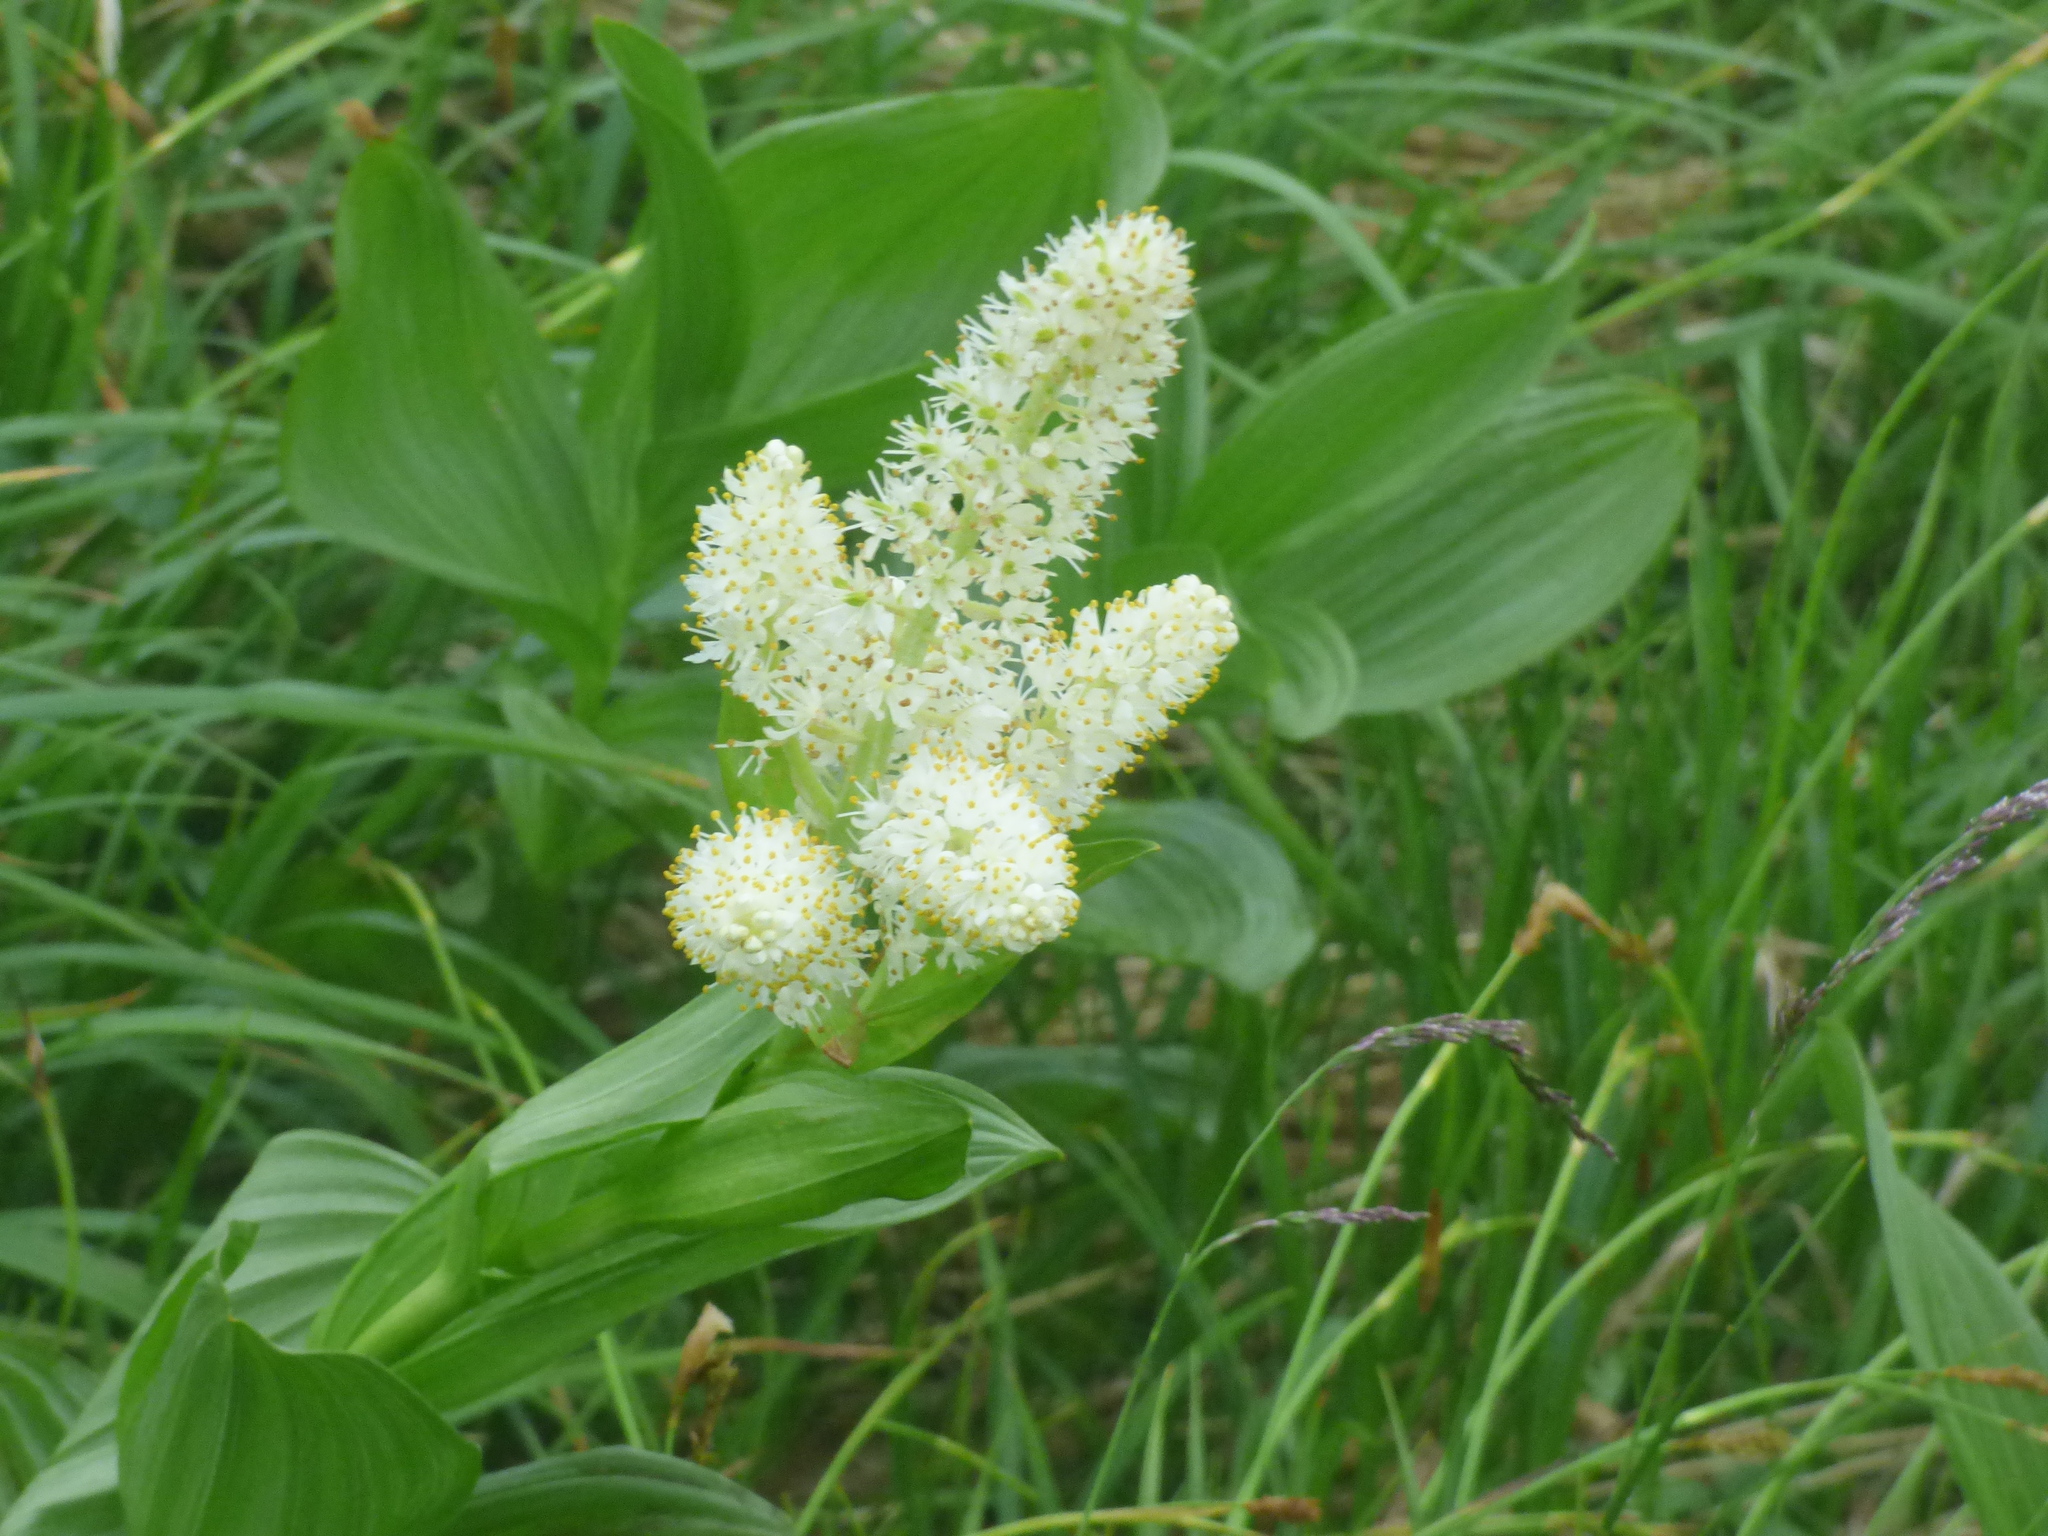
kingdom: Plantae
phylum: Tracheophyta
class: Liliopsida
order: Liliales
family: Melanthiaceae
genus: Veratrum
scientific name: Veratrum stamineum
